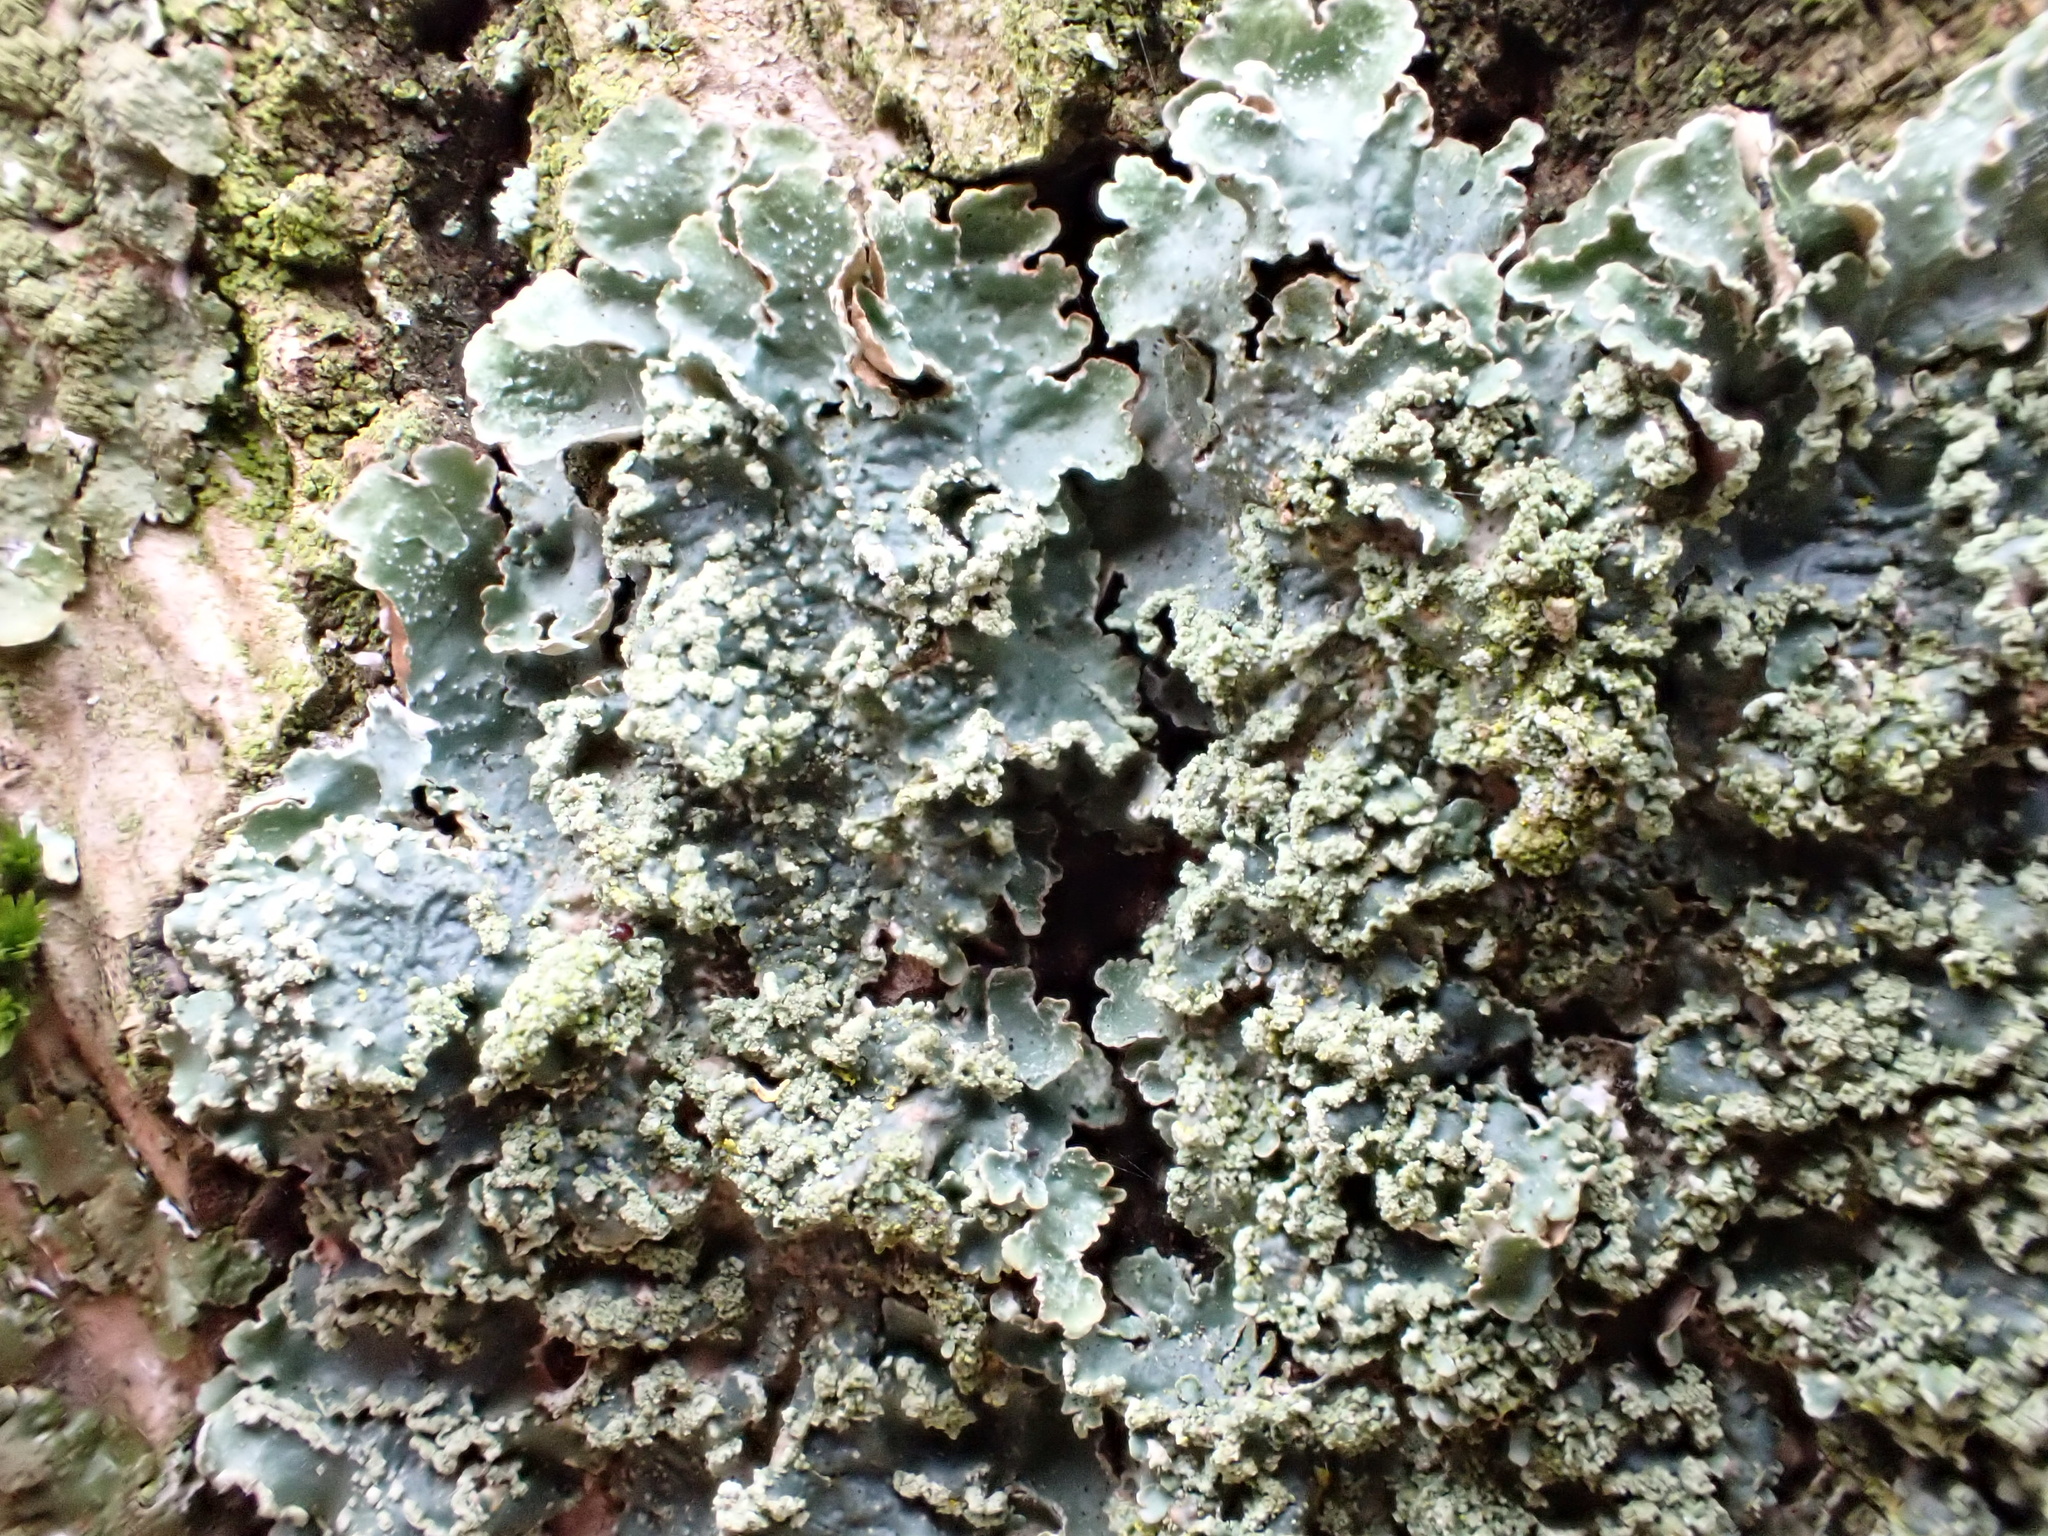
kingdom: Fungi
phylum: Ascomycota
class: Lecanoromycetes
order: Lecanorales
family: Parmeliaceae
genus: Punctelia
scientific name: Punctelia jeckeri
